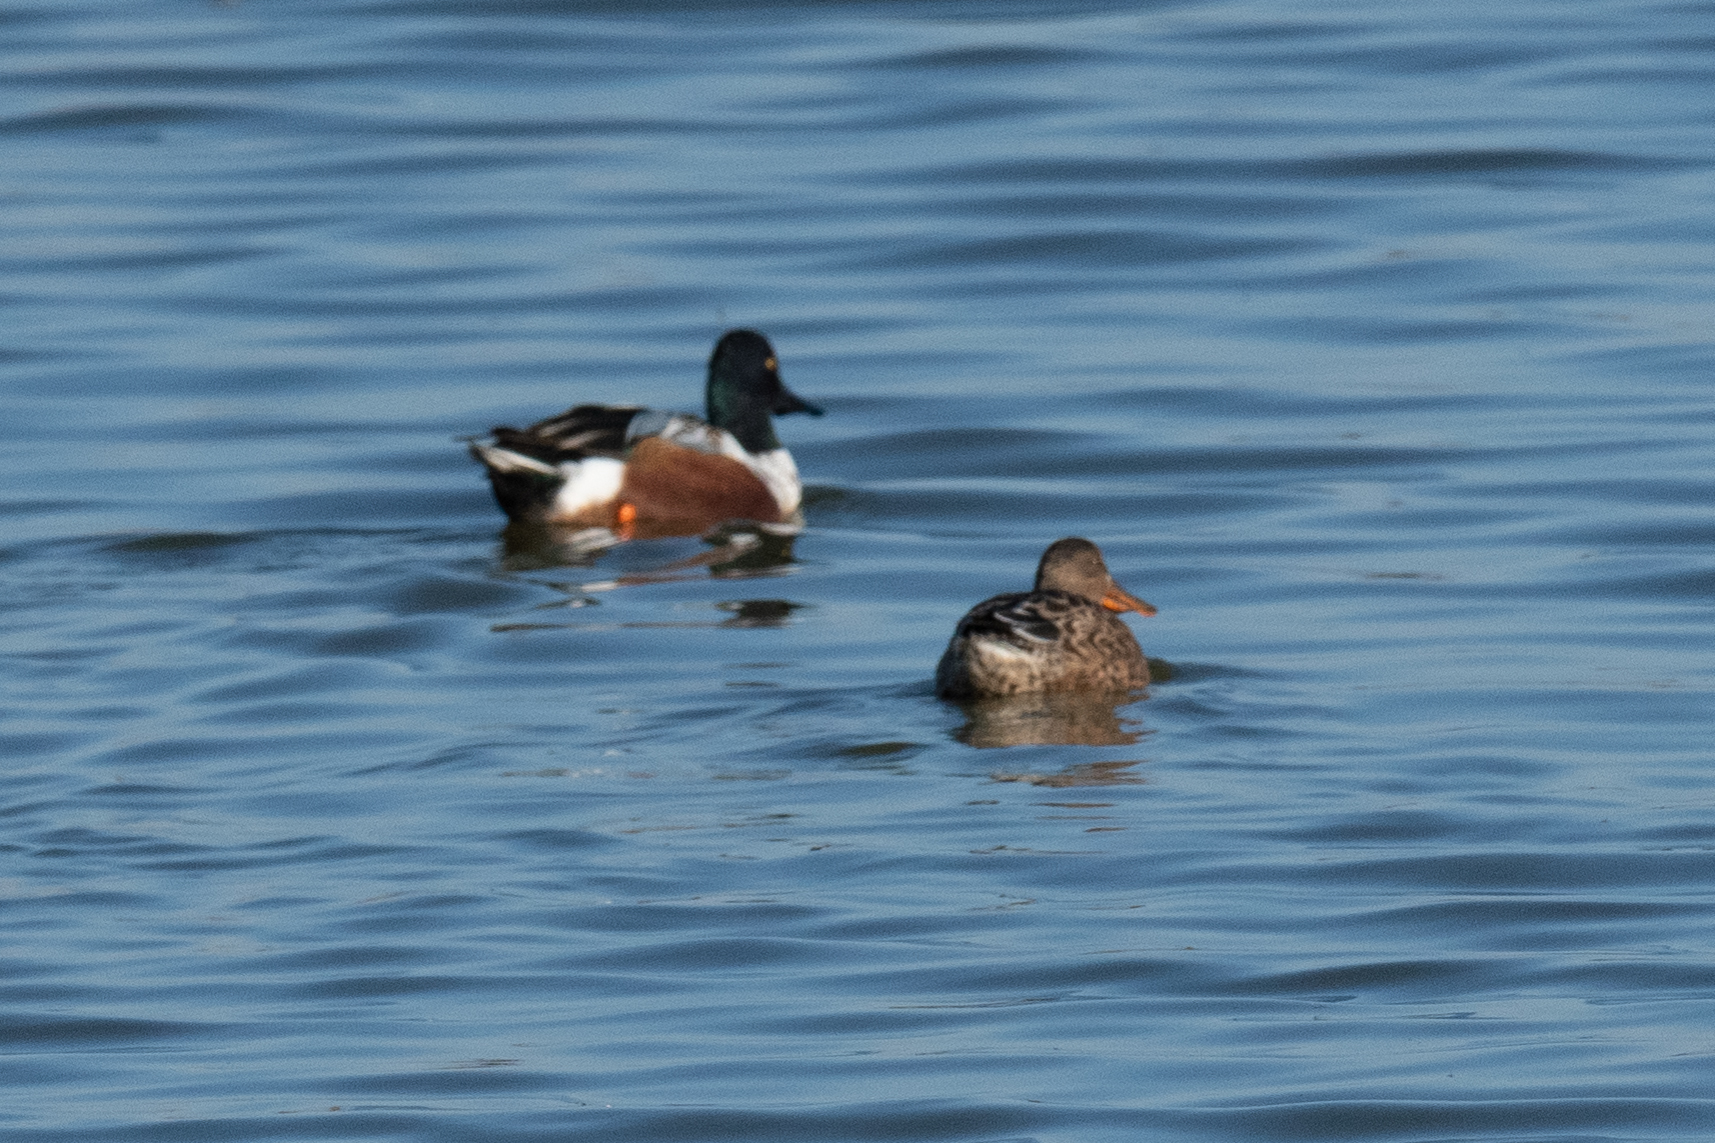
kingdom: Animalia
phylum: Chordata
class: Aves
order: Anseriformes
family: Anatidae
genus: Spatula
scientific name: Spatula clypeata
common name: Northern shoveler
